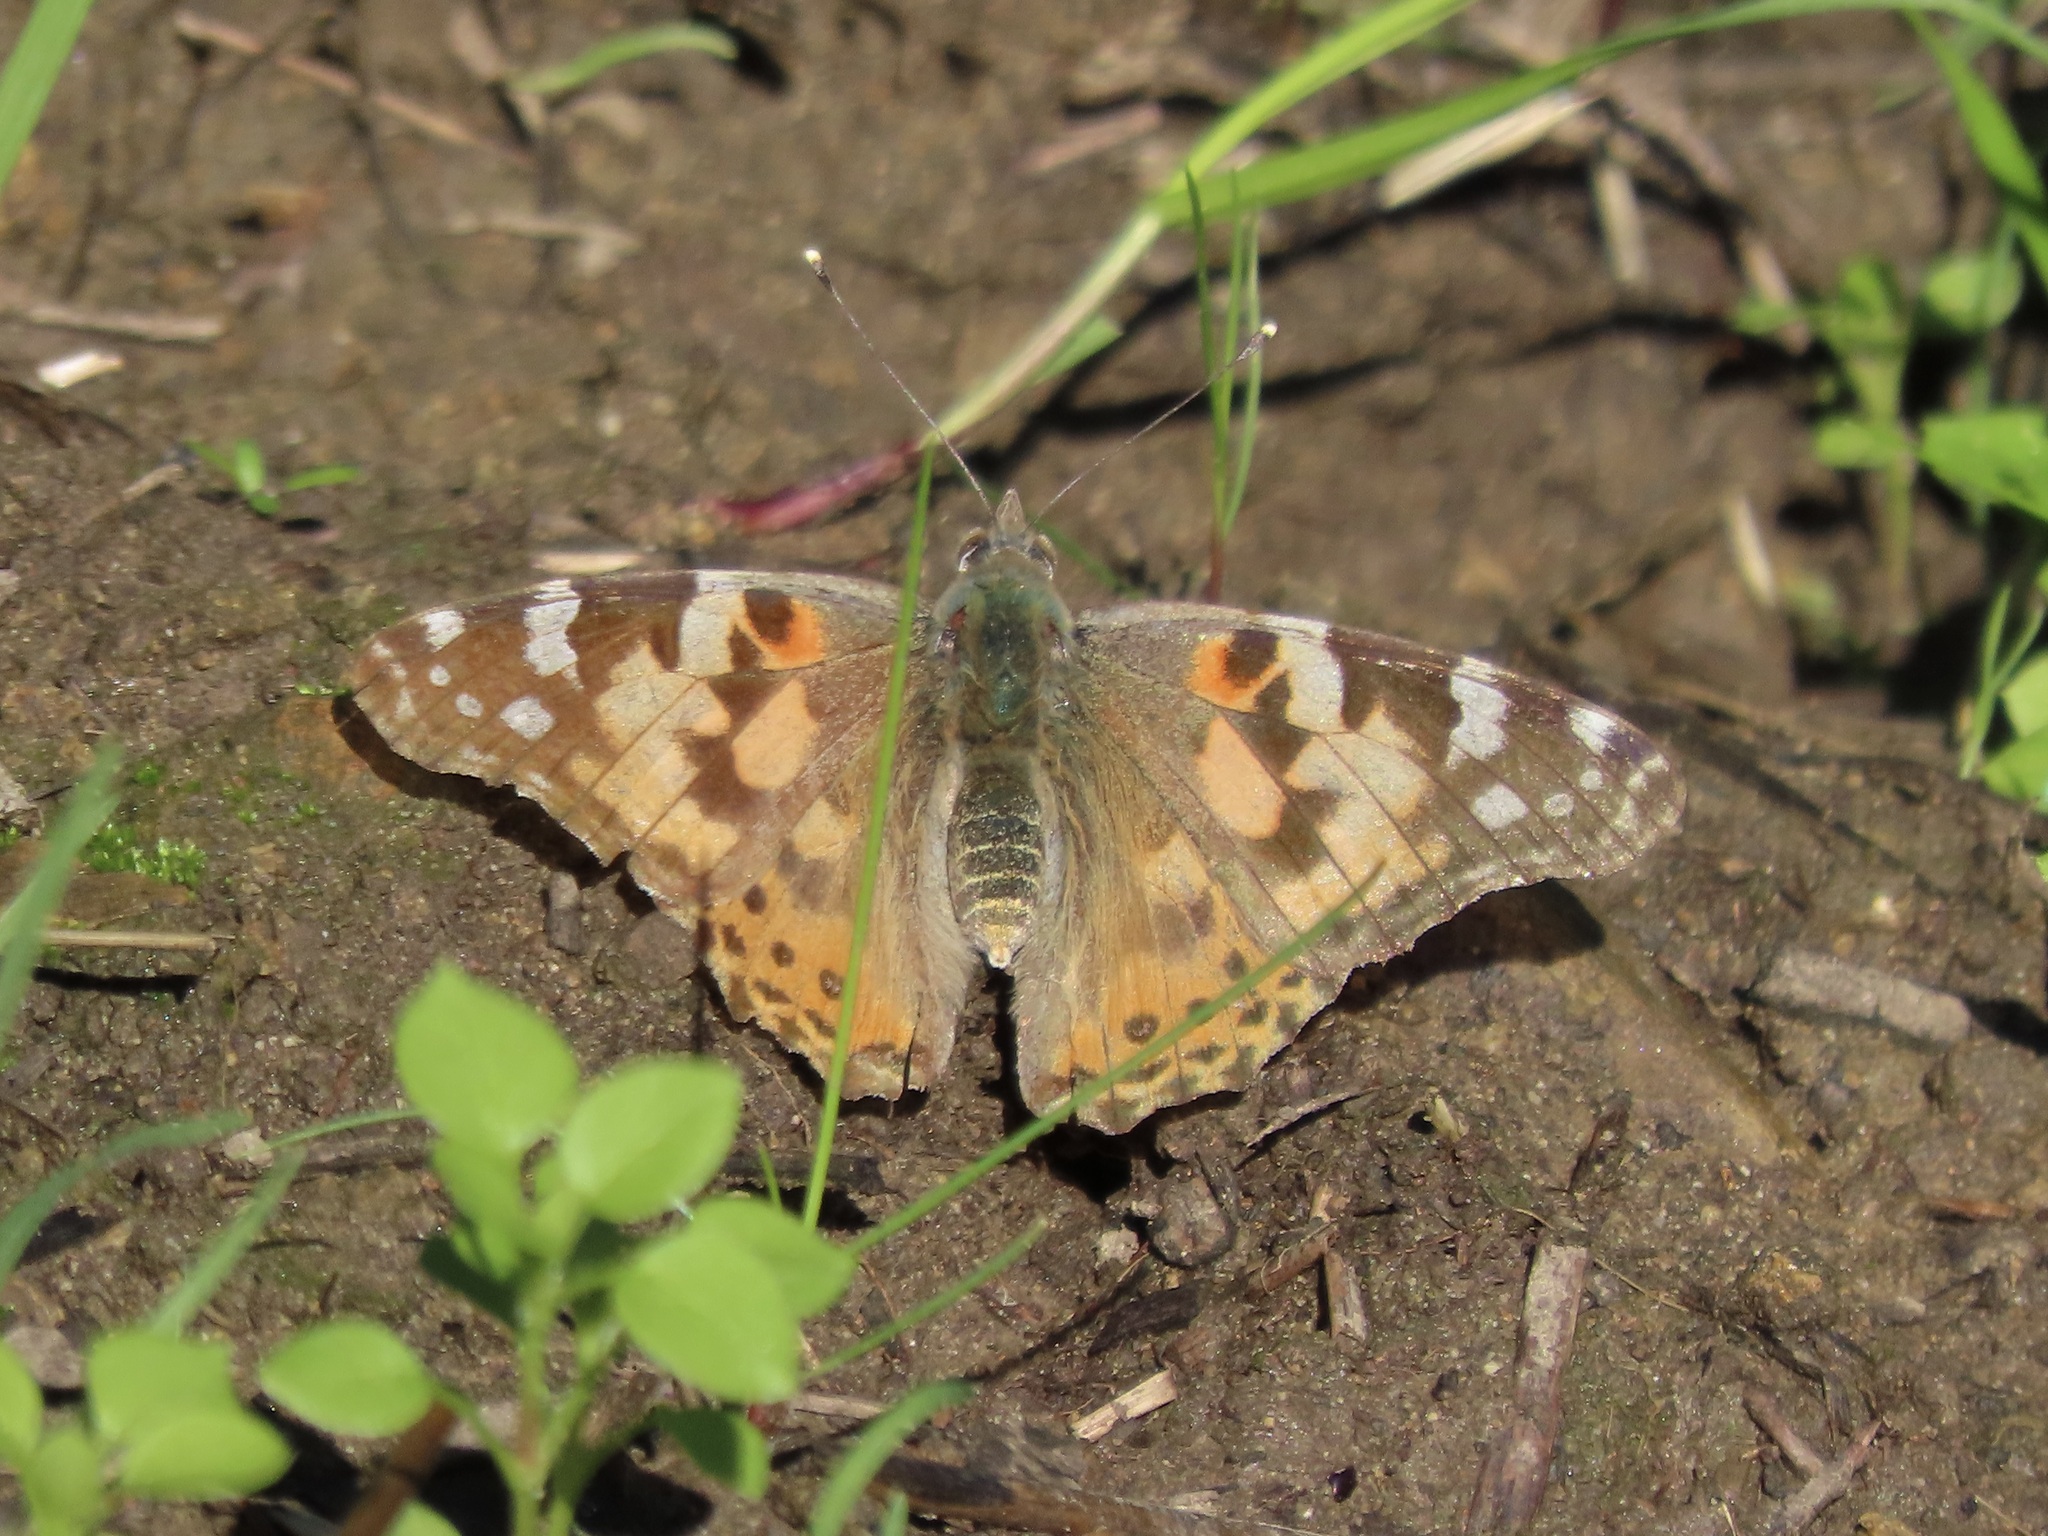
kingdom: Animalia
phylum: Arthropoda
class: Insecta
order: Lepidoptera
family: Nymphalidae
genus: Vanessa
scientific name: Vanessa cardui
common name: Painted lady
